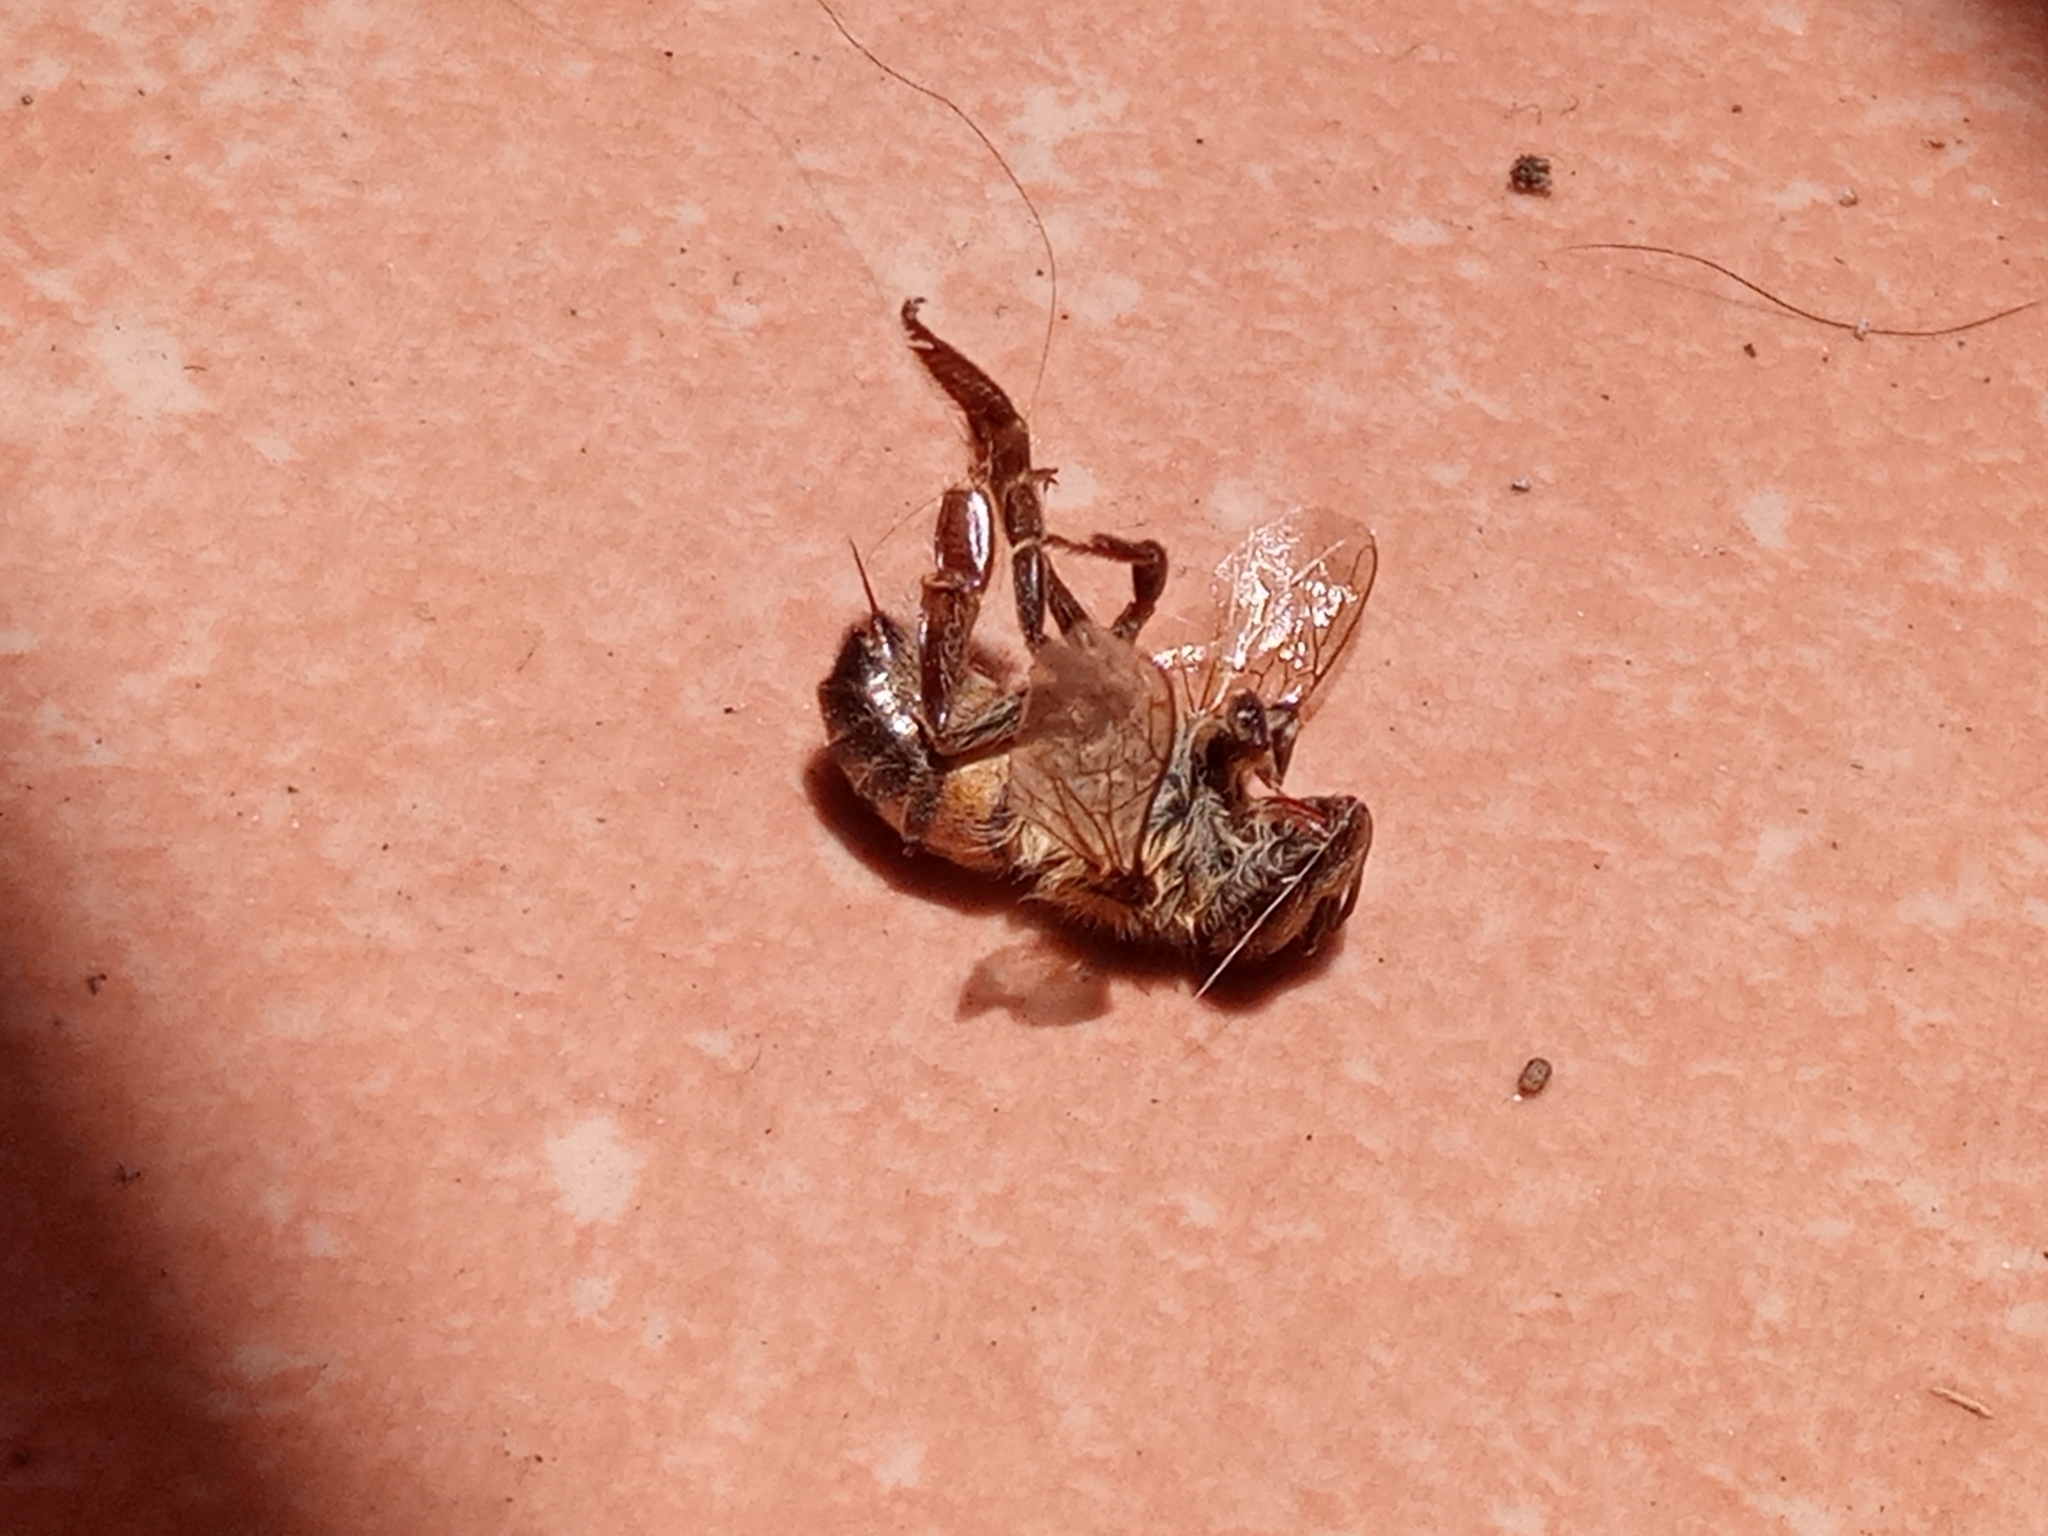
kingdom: Animalia
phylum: Arthropoda
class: Insecta
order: Hymenoptera
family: Apidae
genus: Apis
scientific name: Apis mellifera
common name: Honey bee
